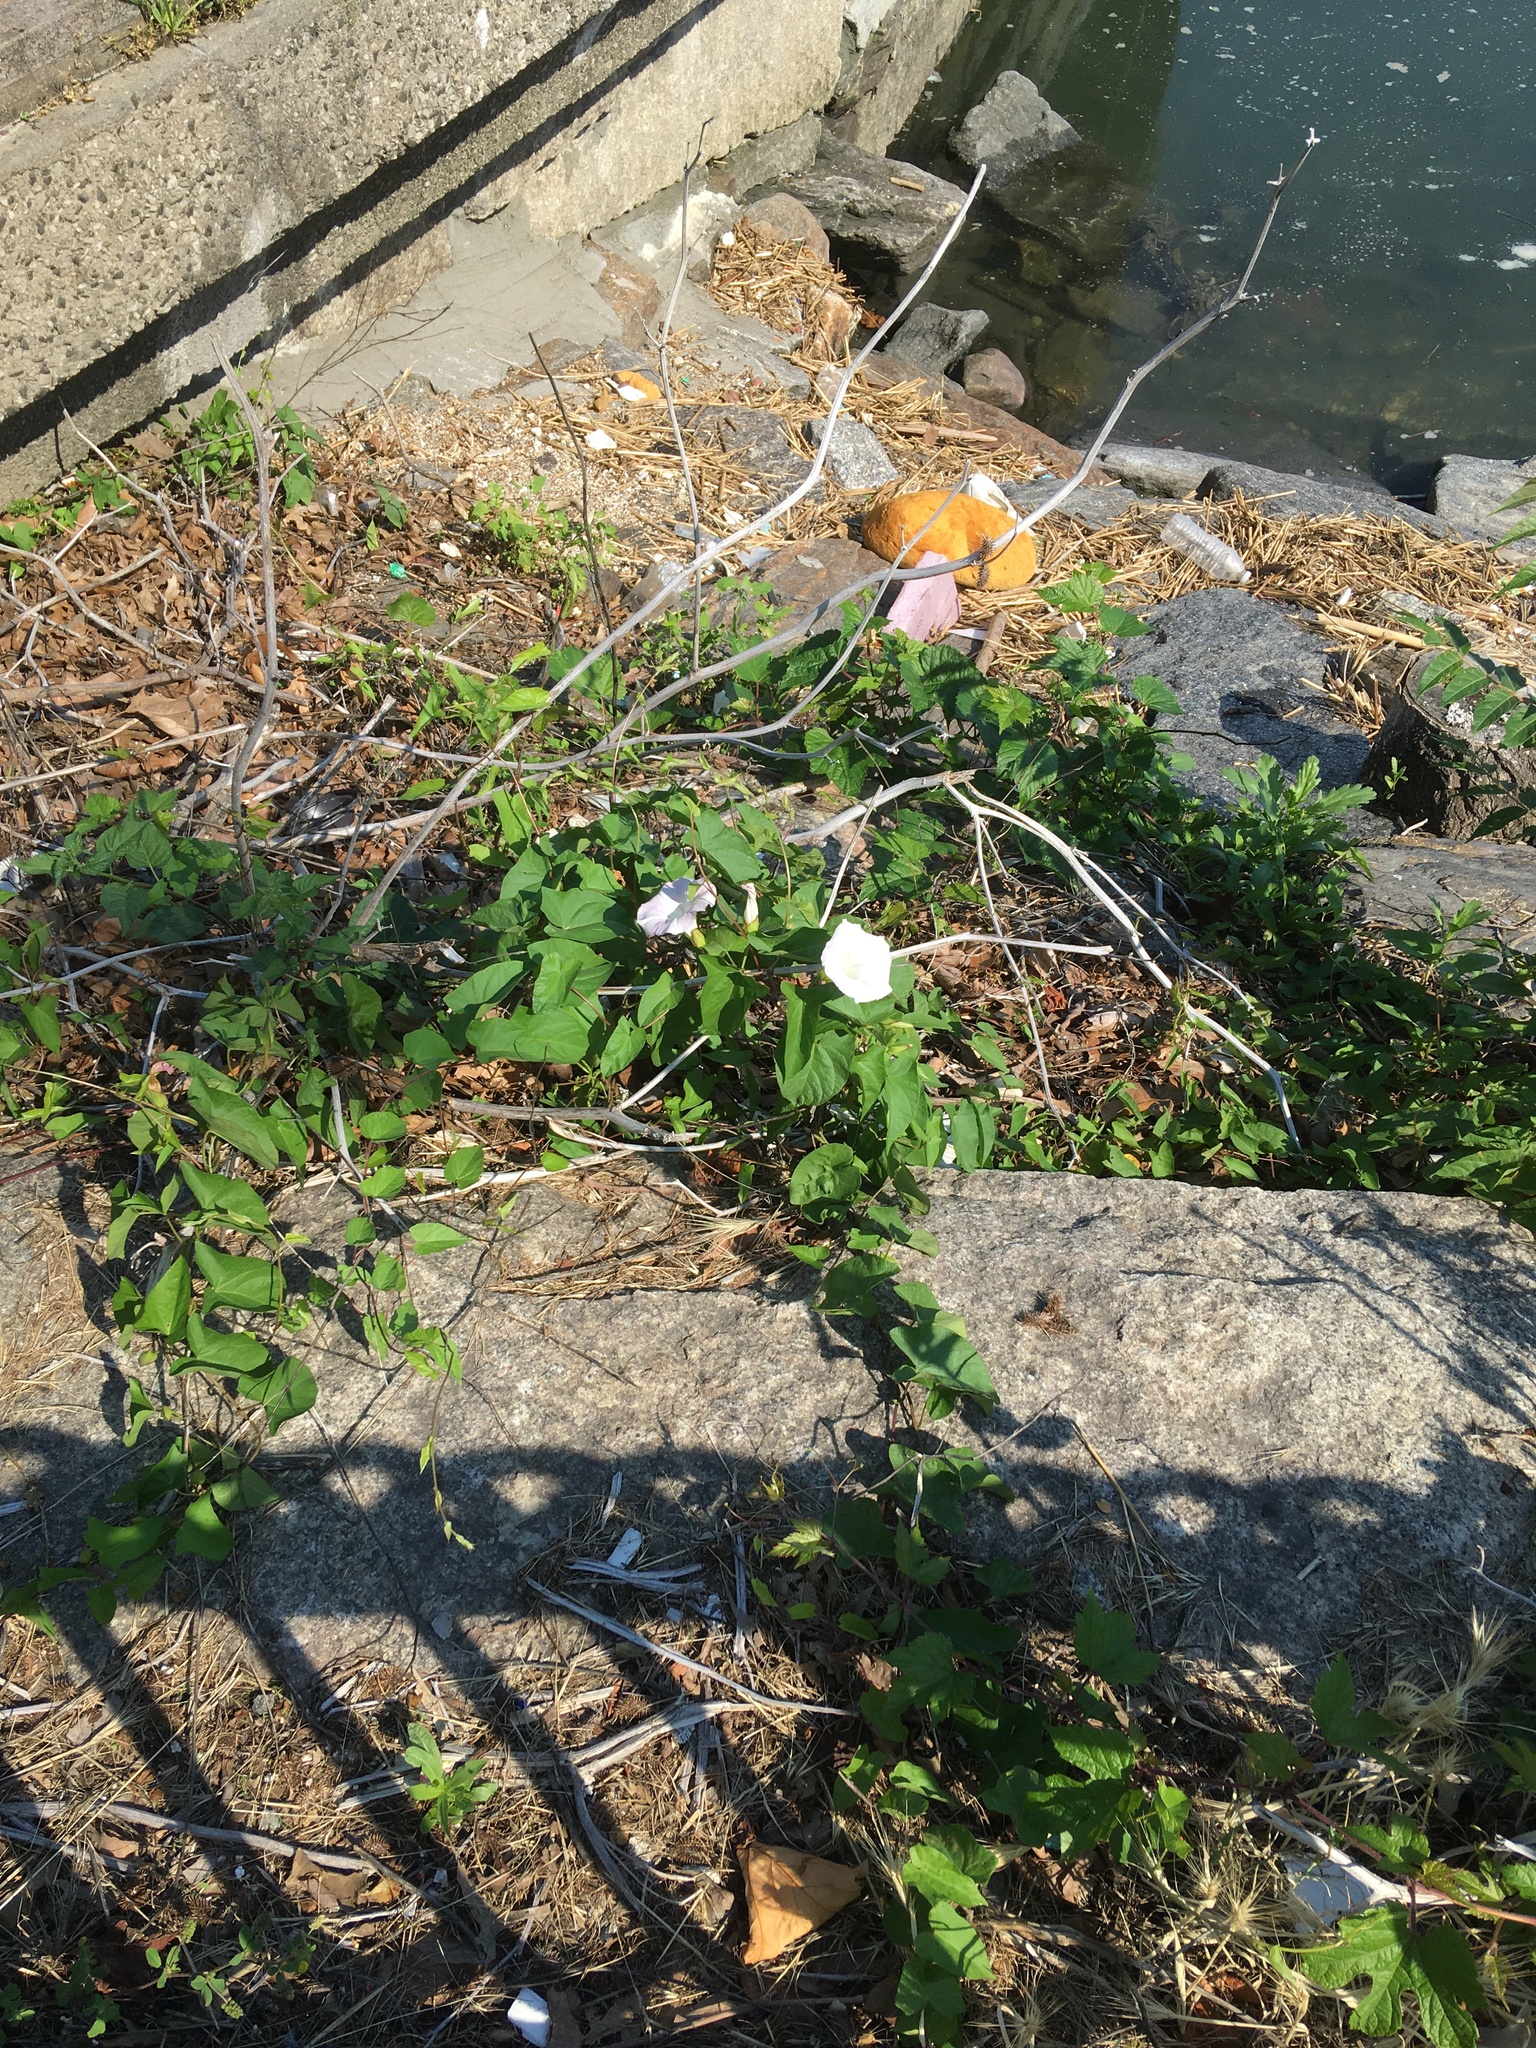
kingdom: Plantae
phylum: Tracheophyta
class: Magnoliopsida
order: Solanales
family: Convolvulaceae
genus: Calystegia
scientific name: Calystegia sepium
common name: Hedge bindweed
